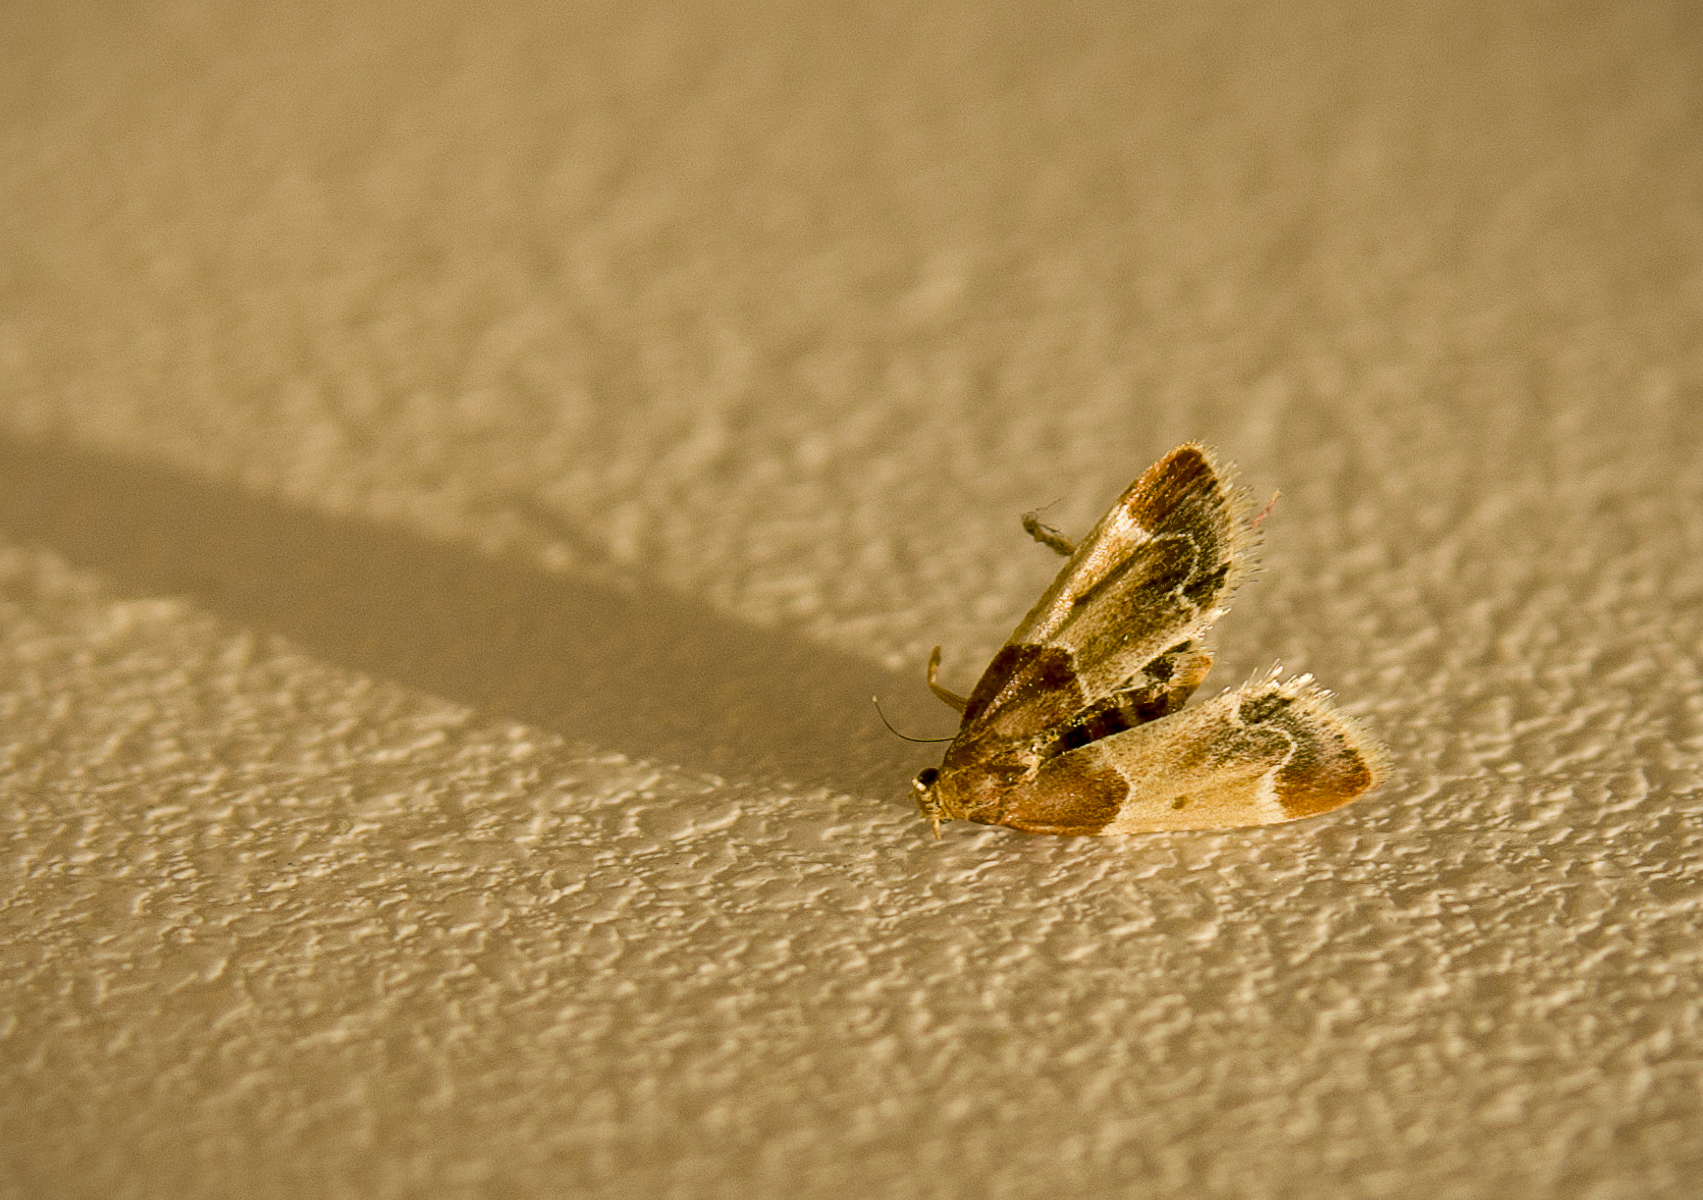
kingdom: Animalia
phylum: Arthropoda
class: Insecta
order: Lepidoptera
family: Pyralidae
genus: Pyralis
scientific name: Pyralis farinalis
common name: Meal moth
